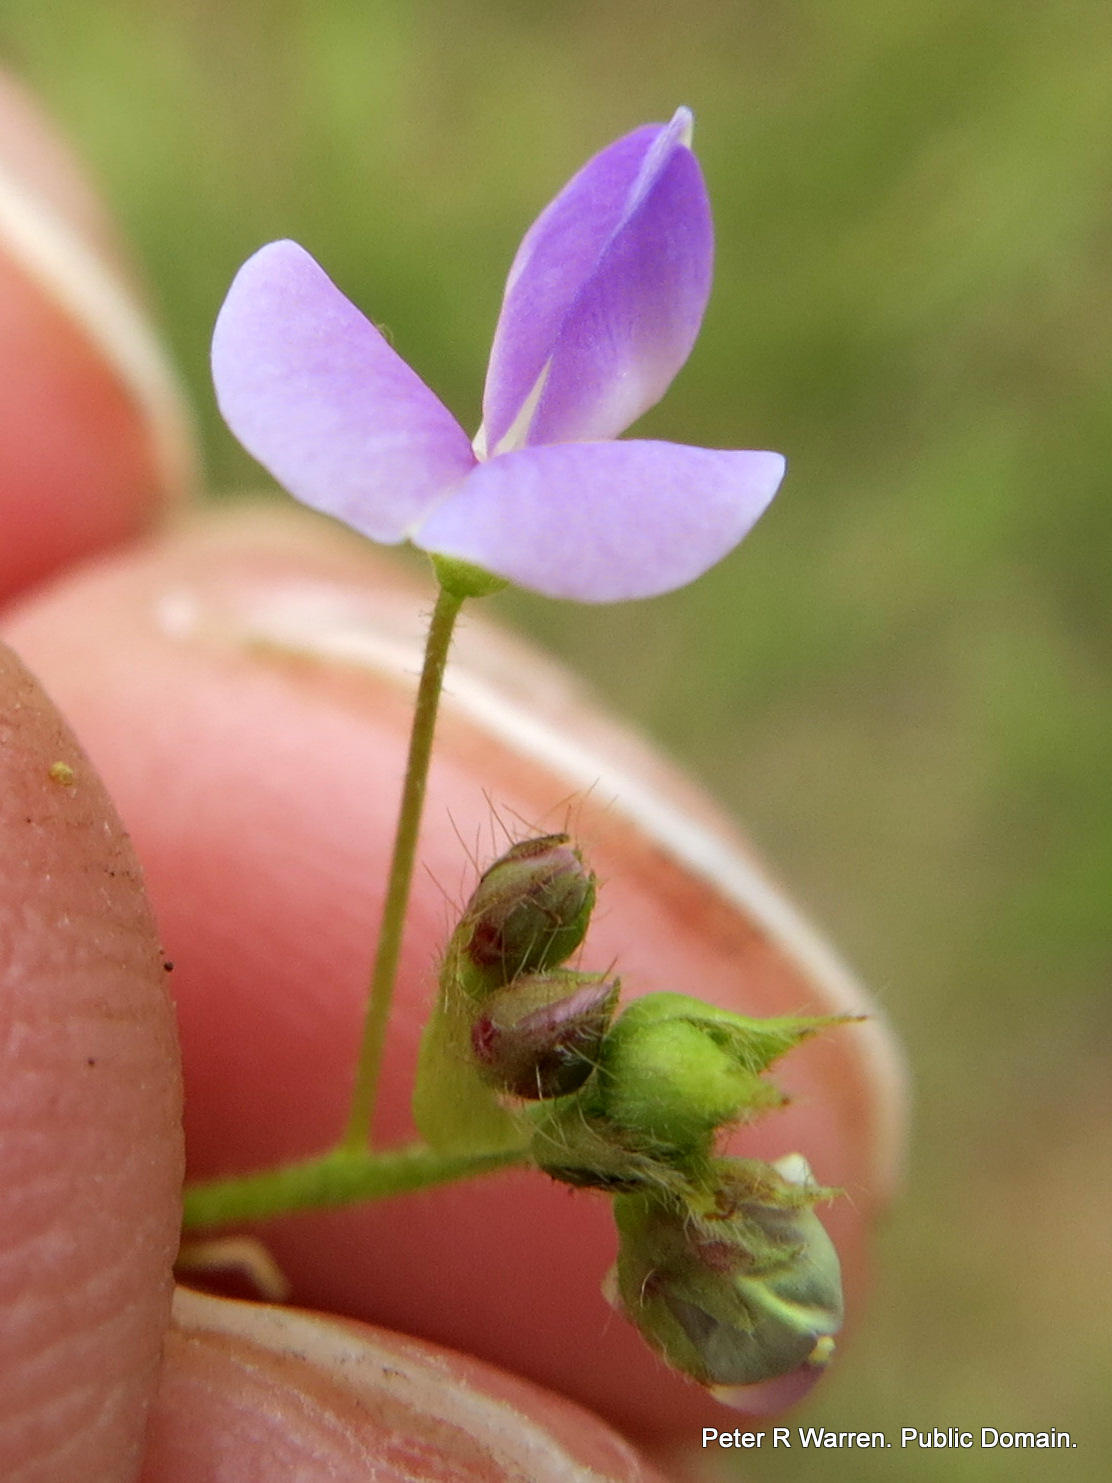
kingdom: Plantae
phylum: Tracheophyta
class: Magnoliopsida
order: Fabales
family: Fabaceae
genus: Grona
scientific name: Grona setigera
